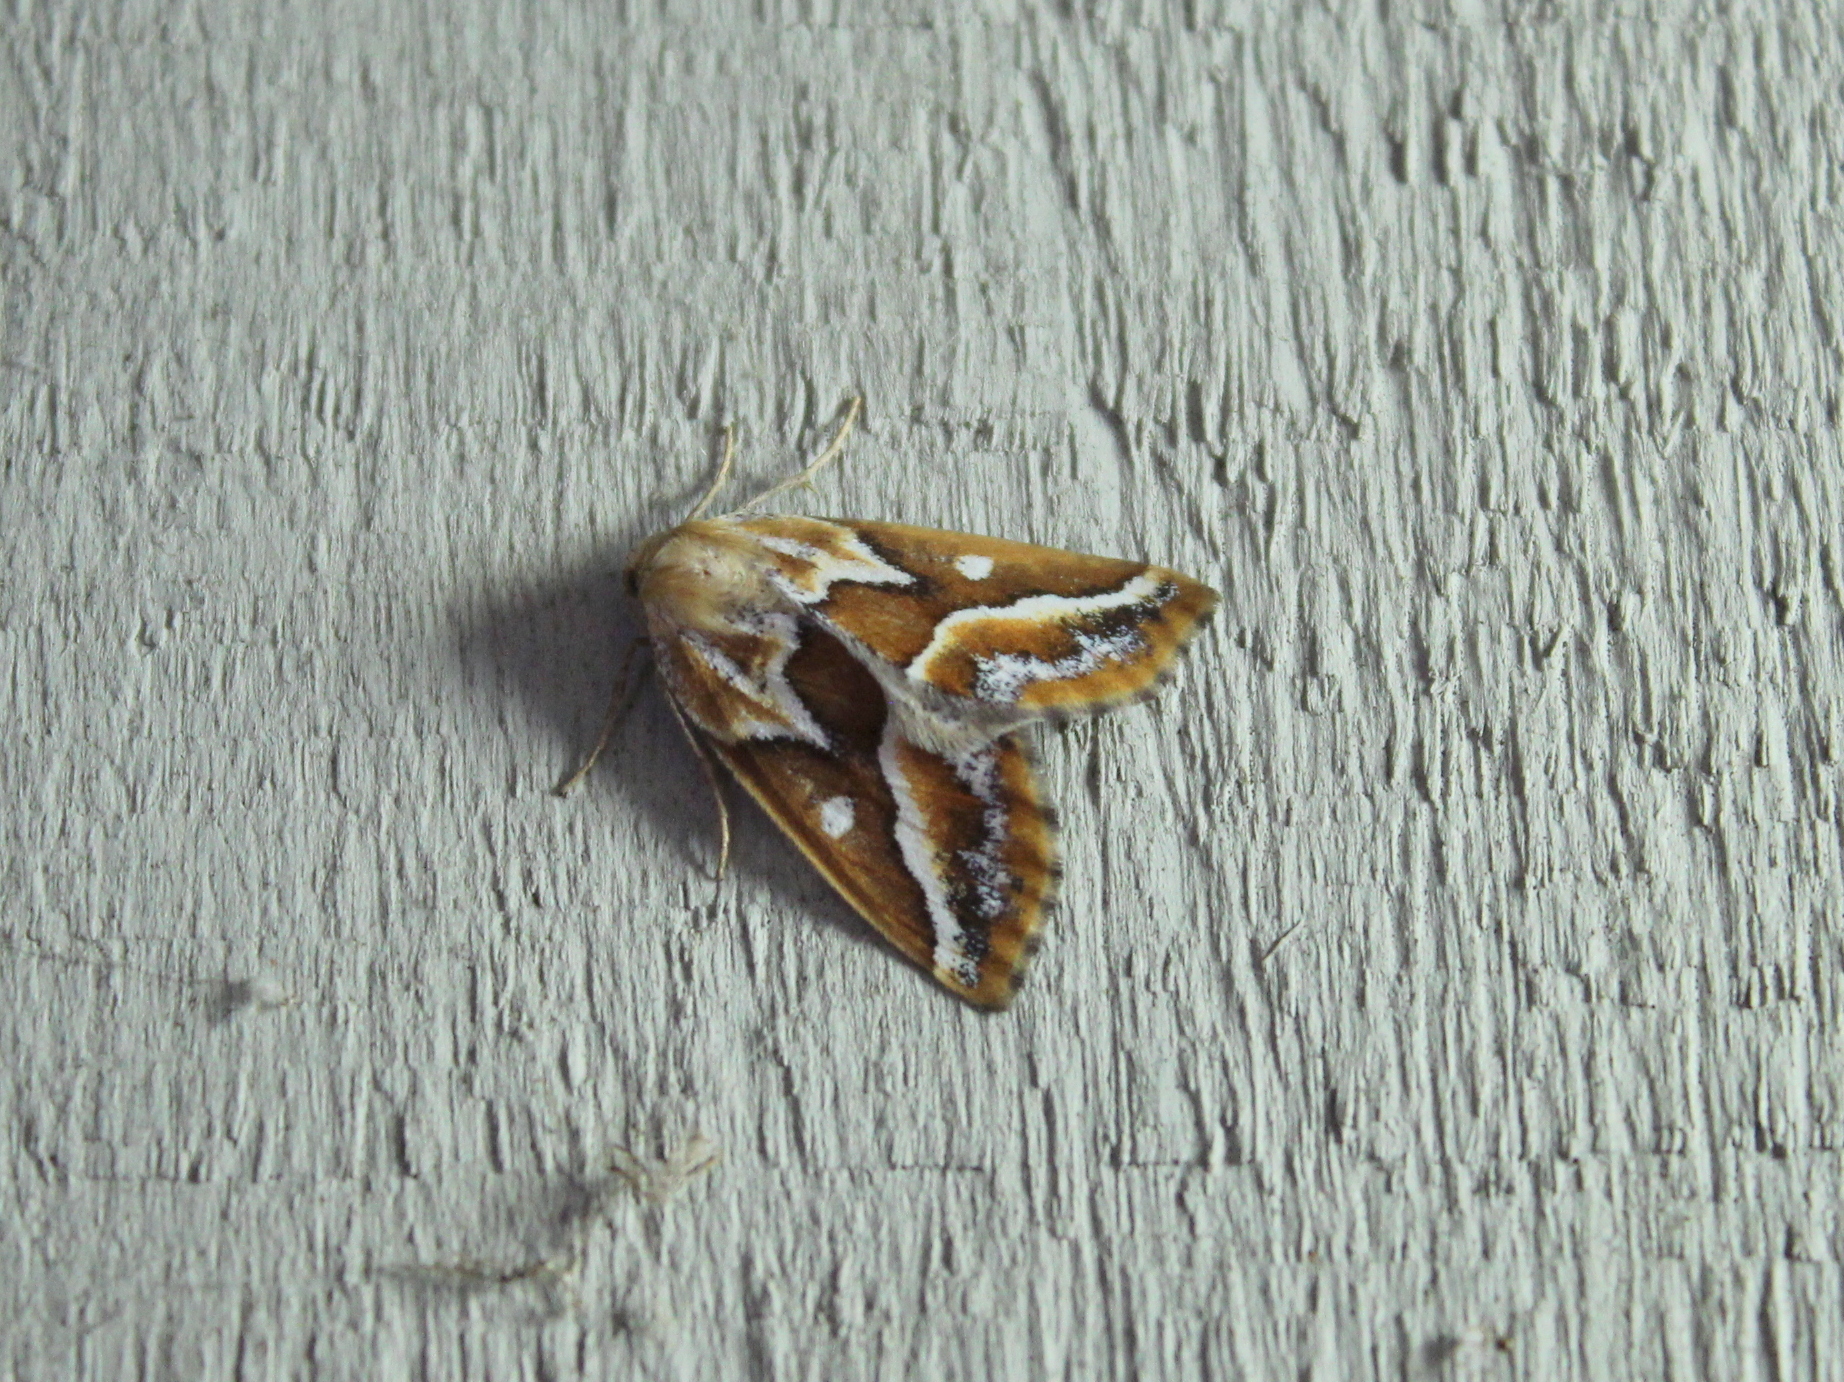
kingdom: Animalia
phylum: Arthropoda
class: Insecta
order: Lepidoptera
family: Geometridae
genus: Caripeta
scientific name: Caripeta angustiorata
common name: Brown pine looper
